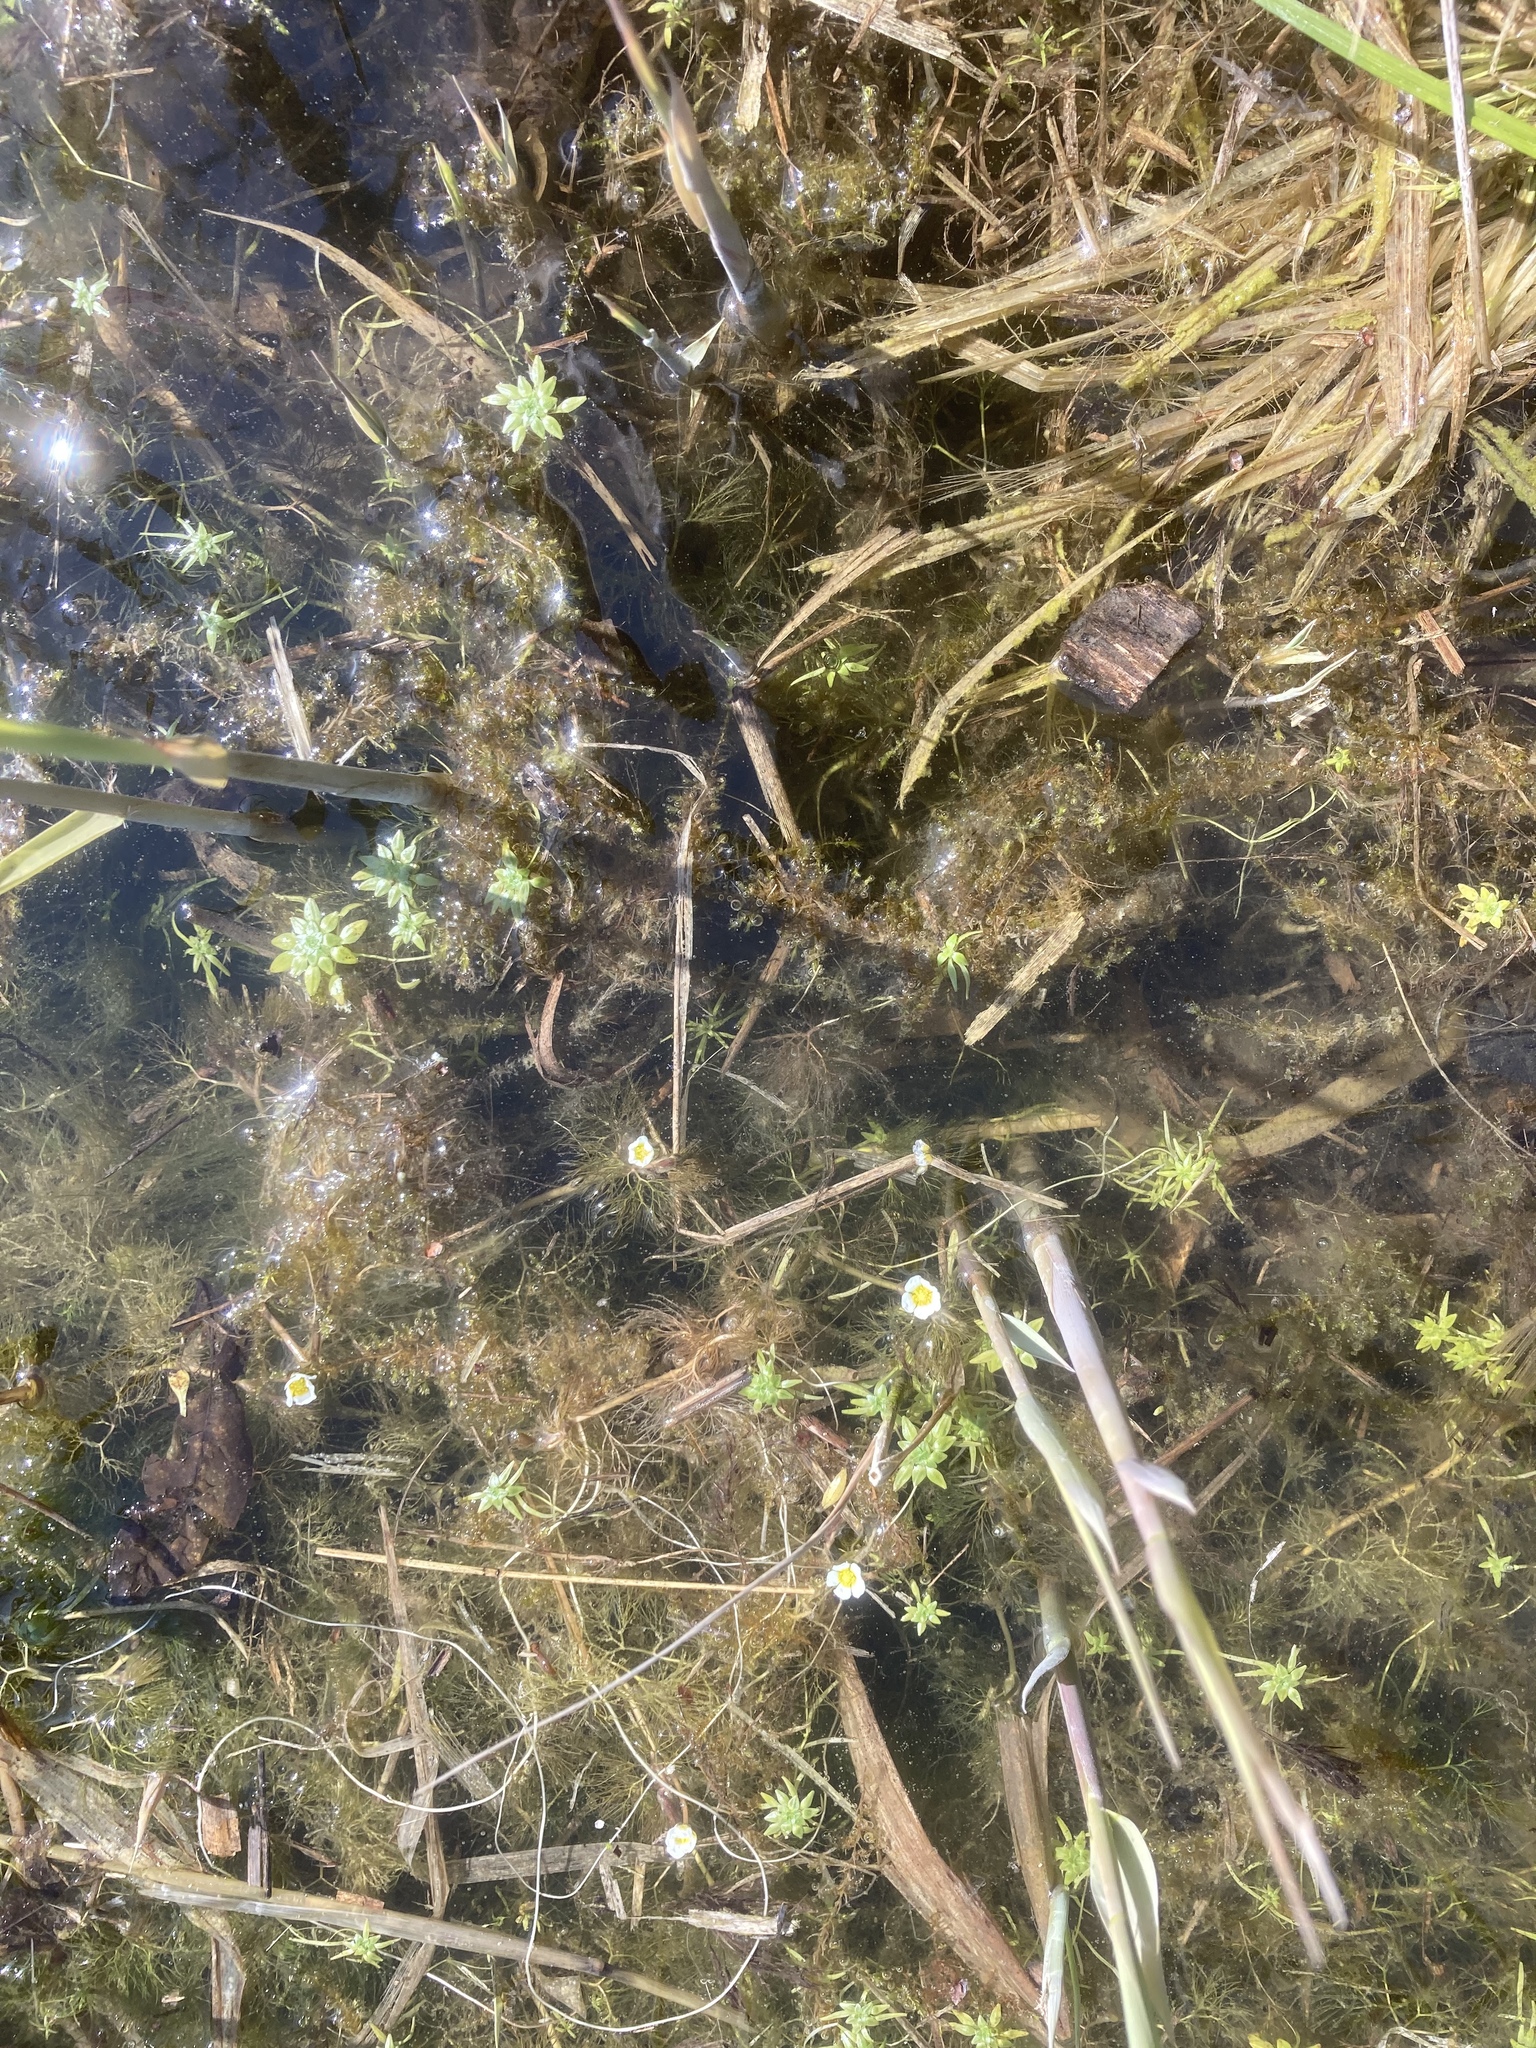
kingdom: Plantae
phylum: Tracheophyta
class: Magnoliopsida
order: Ranunculales
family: Ranunculaceae
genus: Ranunculus
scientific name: Ranunculus aquatilis
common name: Common water-crowfoot
